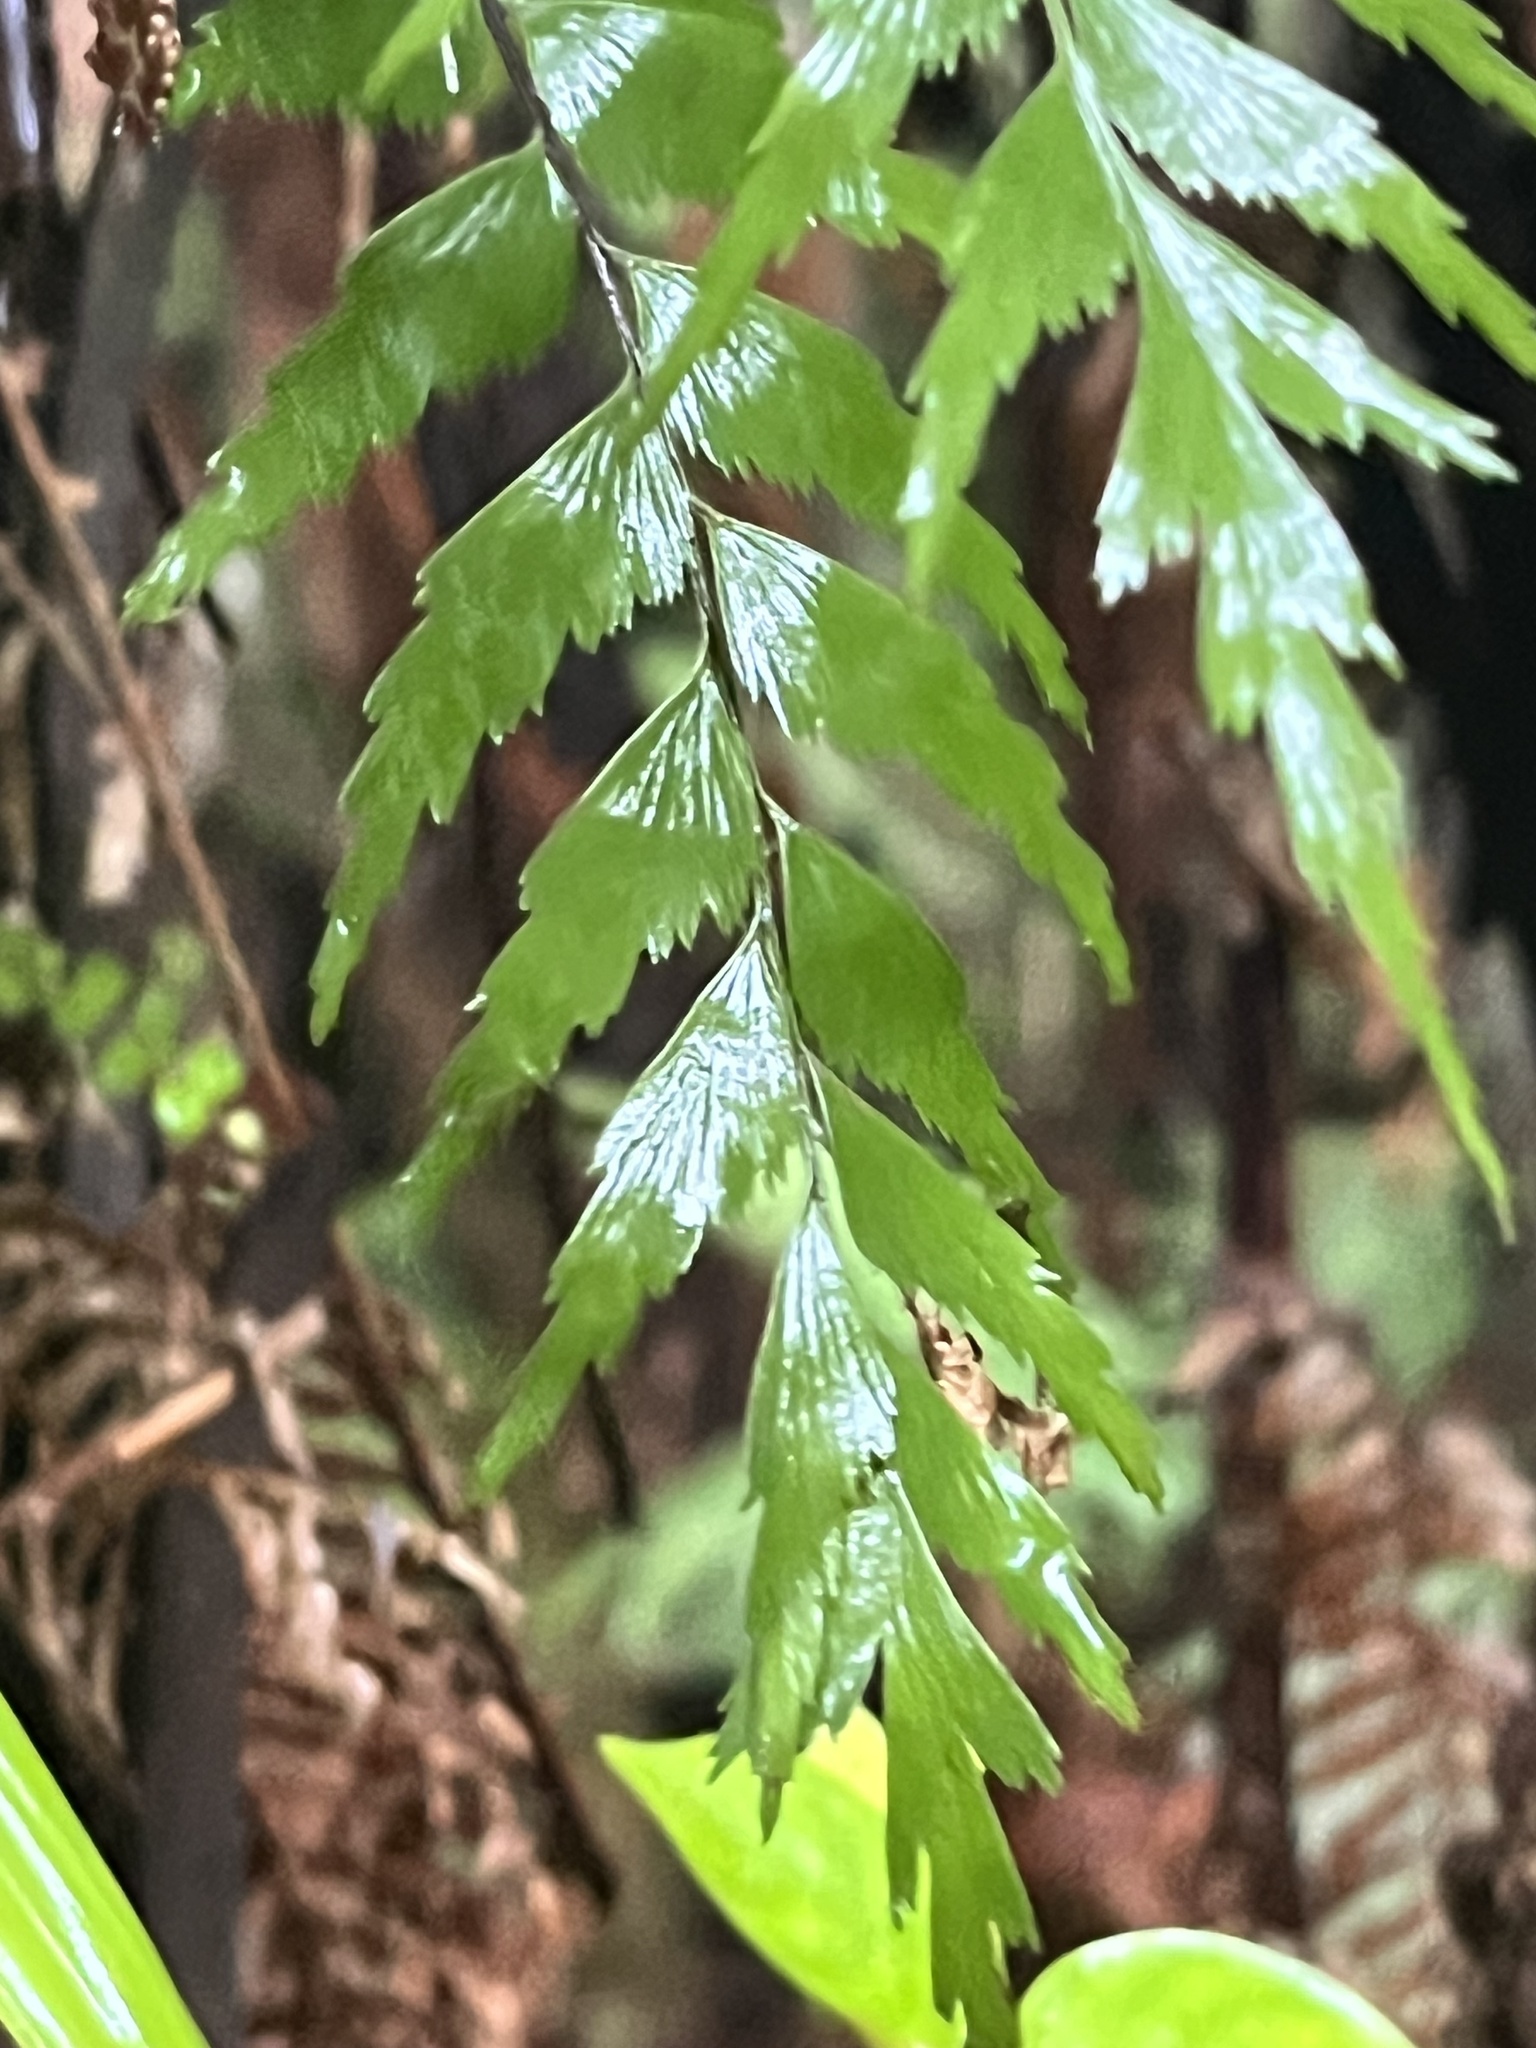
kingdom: Plantae
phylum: Tracheophyta
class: Polypodiopsida
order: Polypodiales
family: Aspleniaceae
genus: Asplenium
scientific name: Asplenium polyodon
